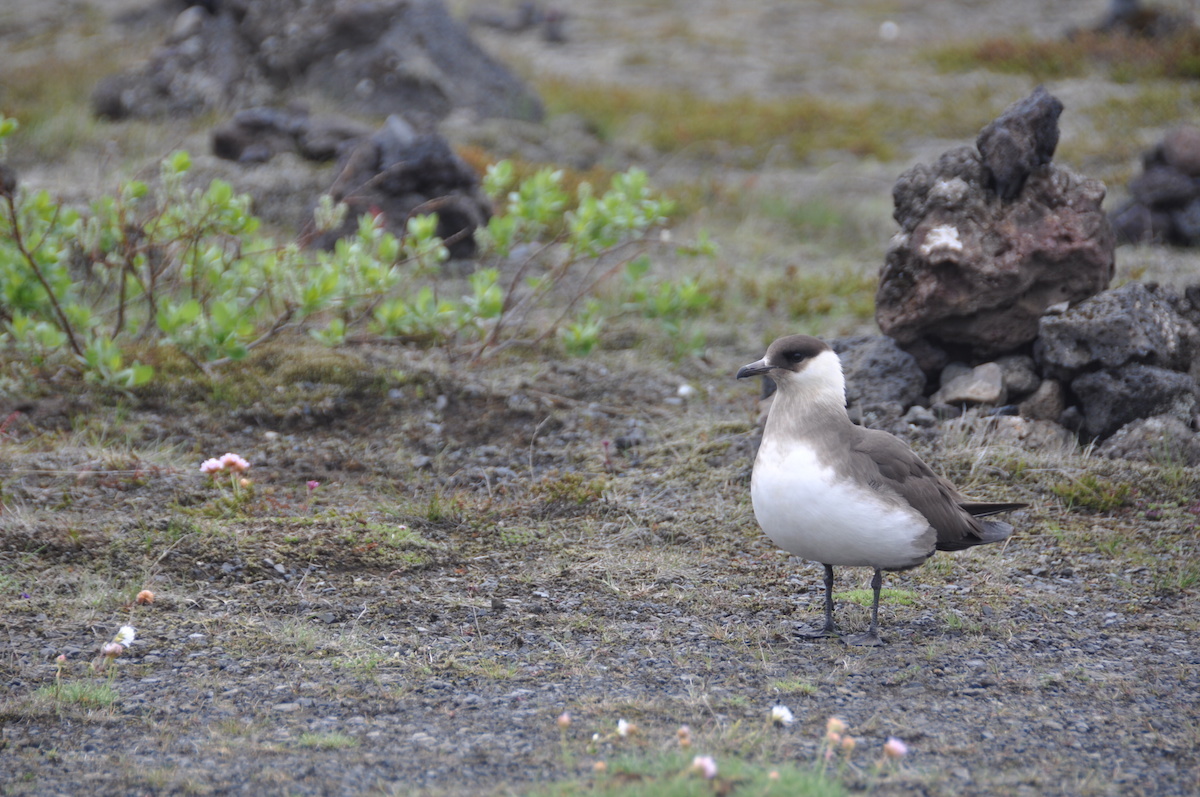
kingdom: Animalia
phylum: Chordata
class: Aves
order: Charadriiformes
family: Stercorariidae
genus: Stercorarius
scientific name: Stercorarius parasiticus
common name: Parasitic jaeger
